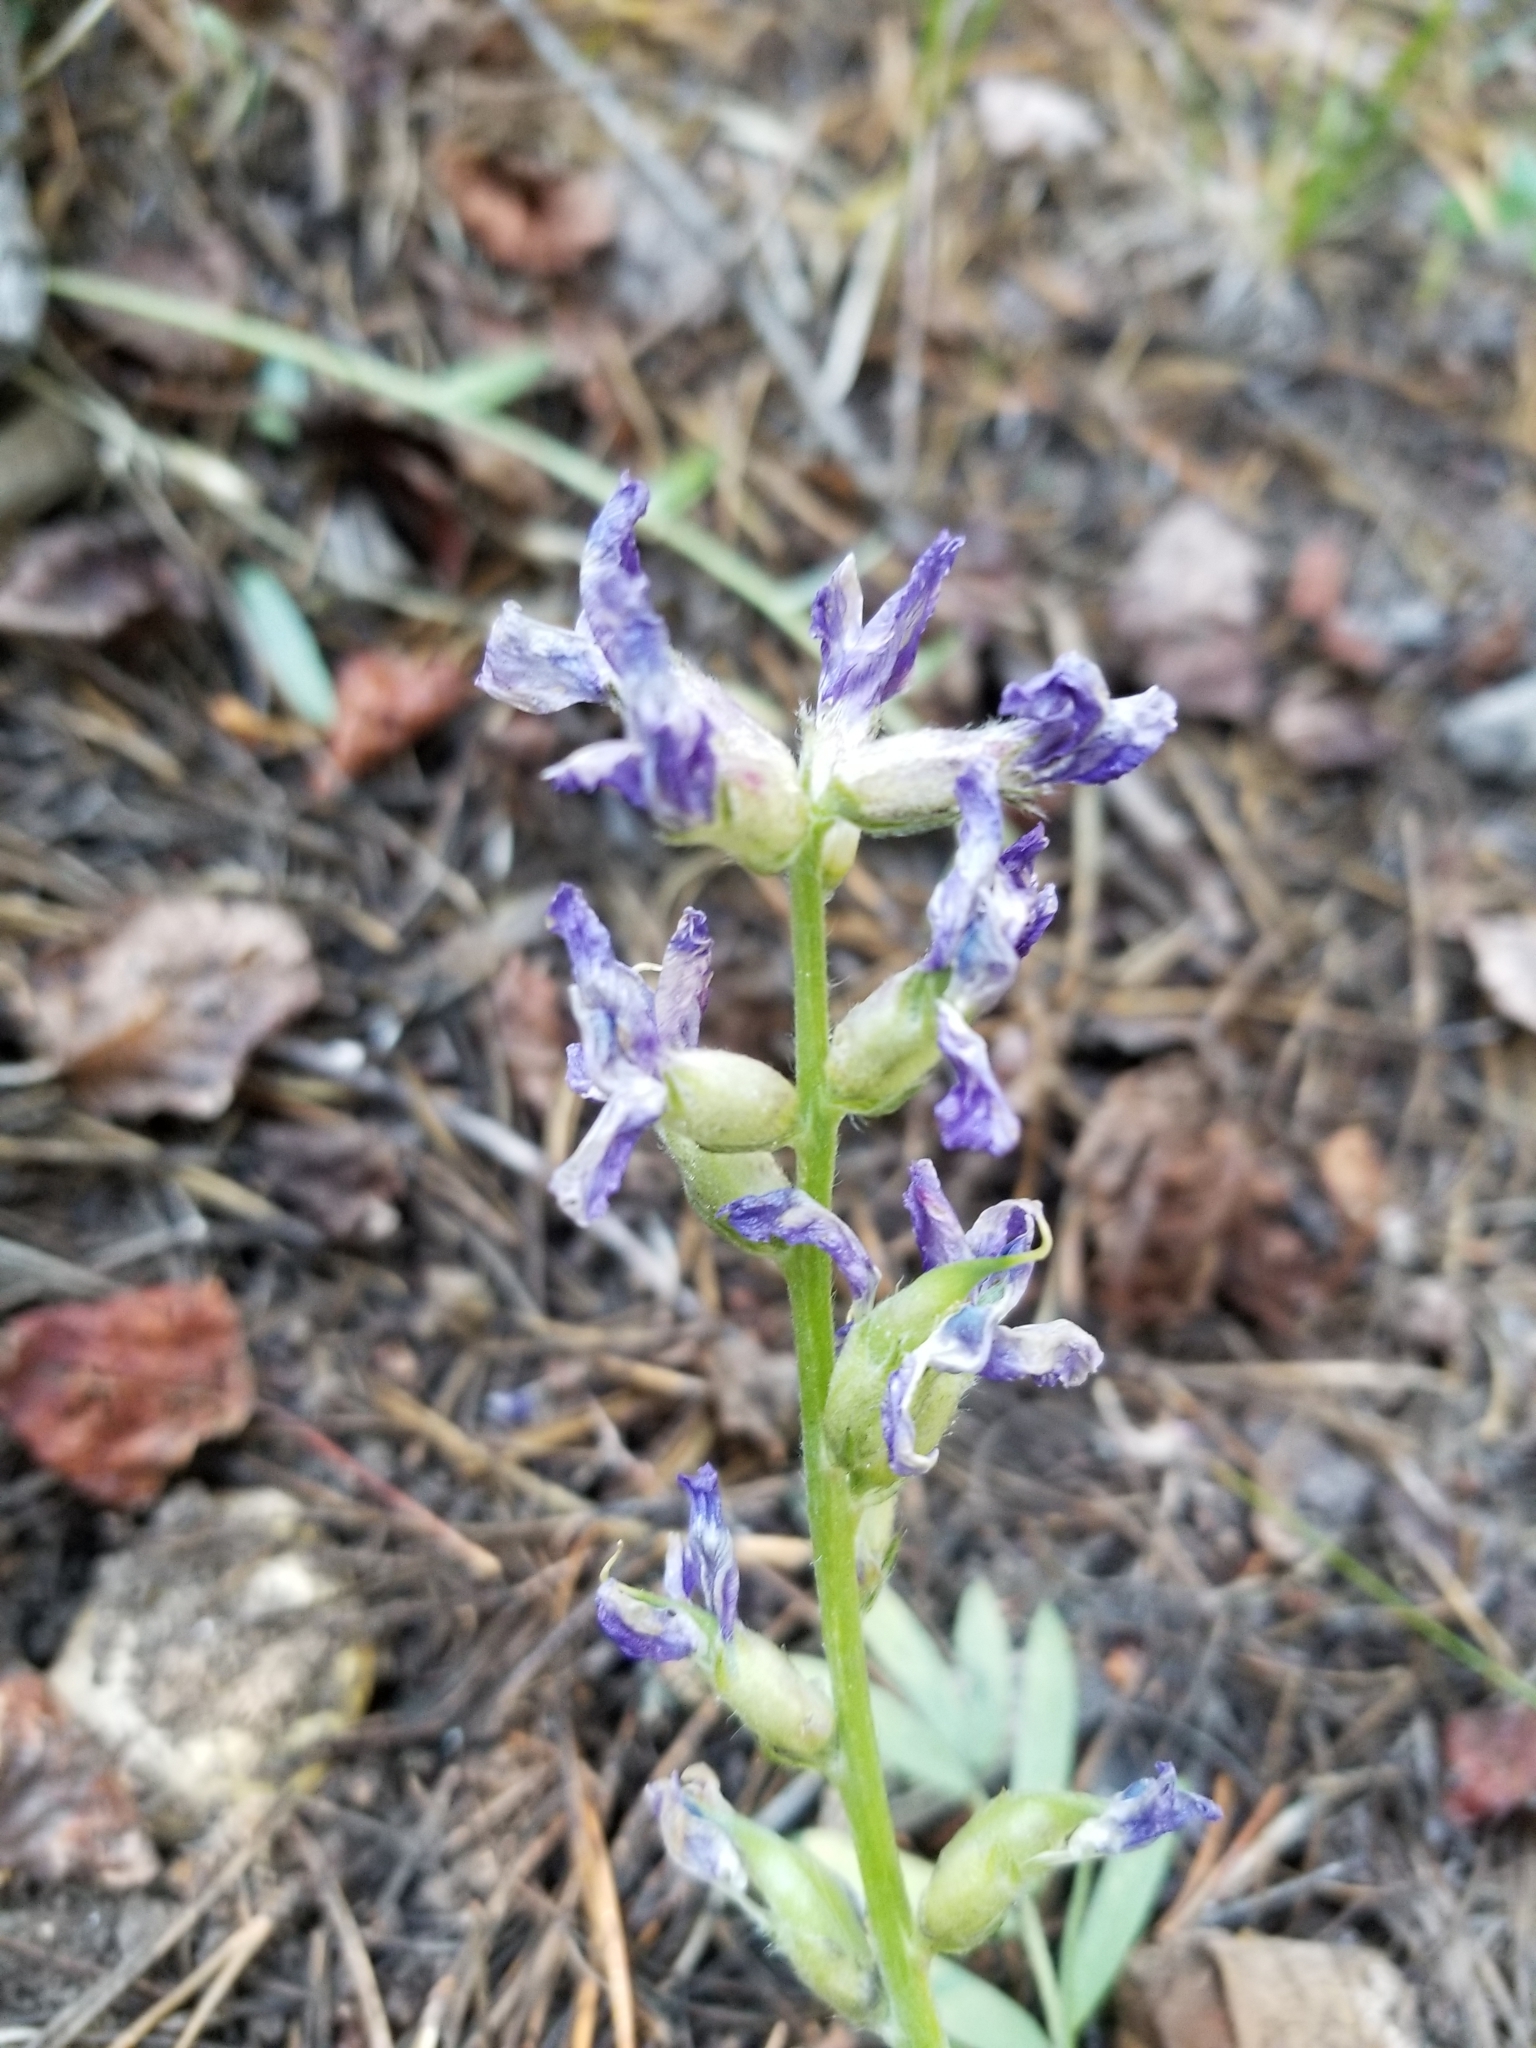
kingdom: Plantae
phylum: Tracheophyta
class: Magnoliopsida
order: Fabales
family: Fabaceae
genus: Oxytropis
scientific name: Oxytropis lambertii
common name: Purple locoweed
